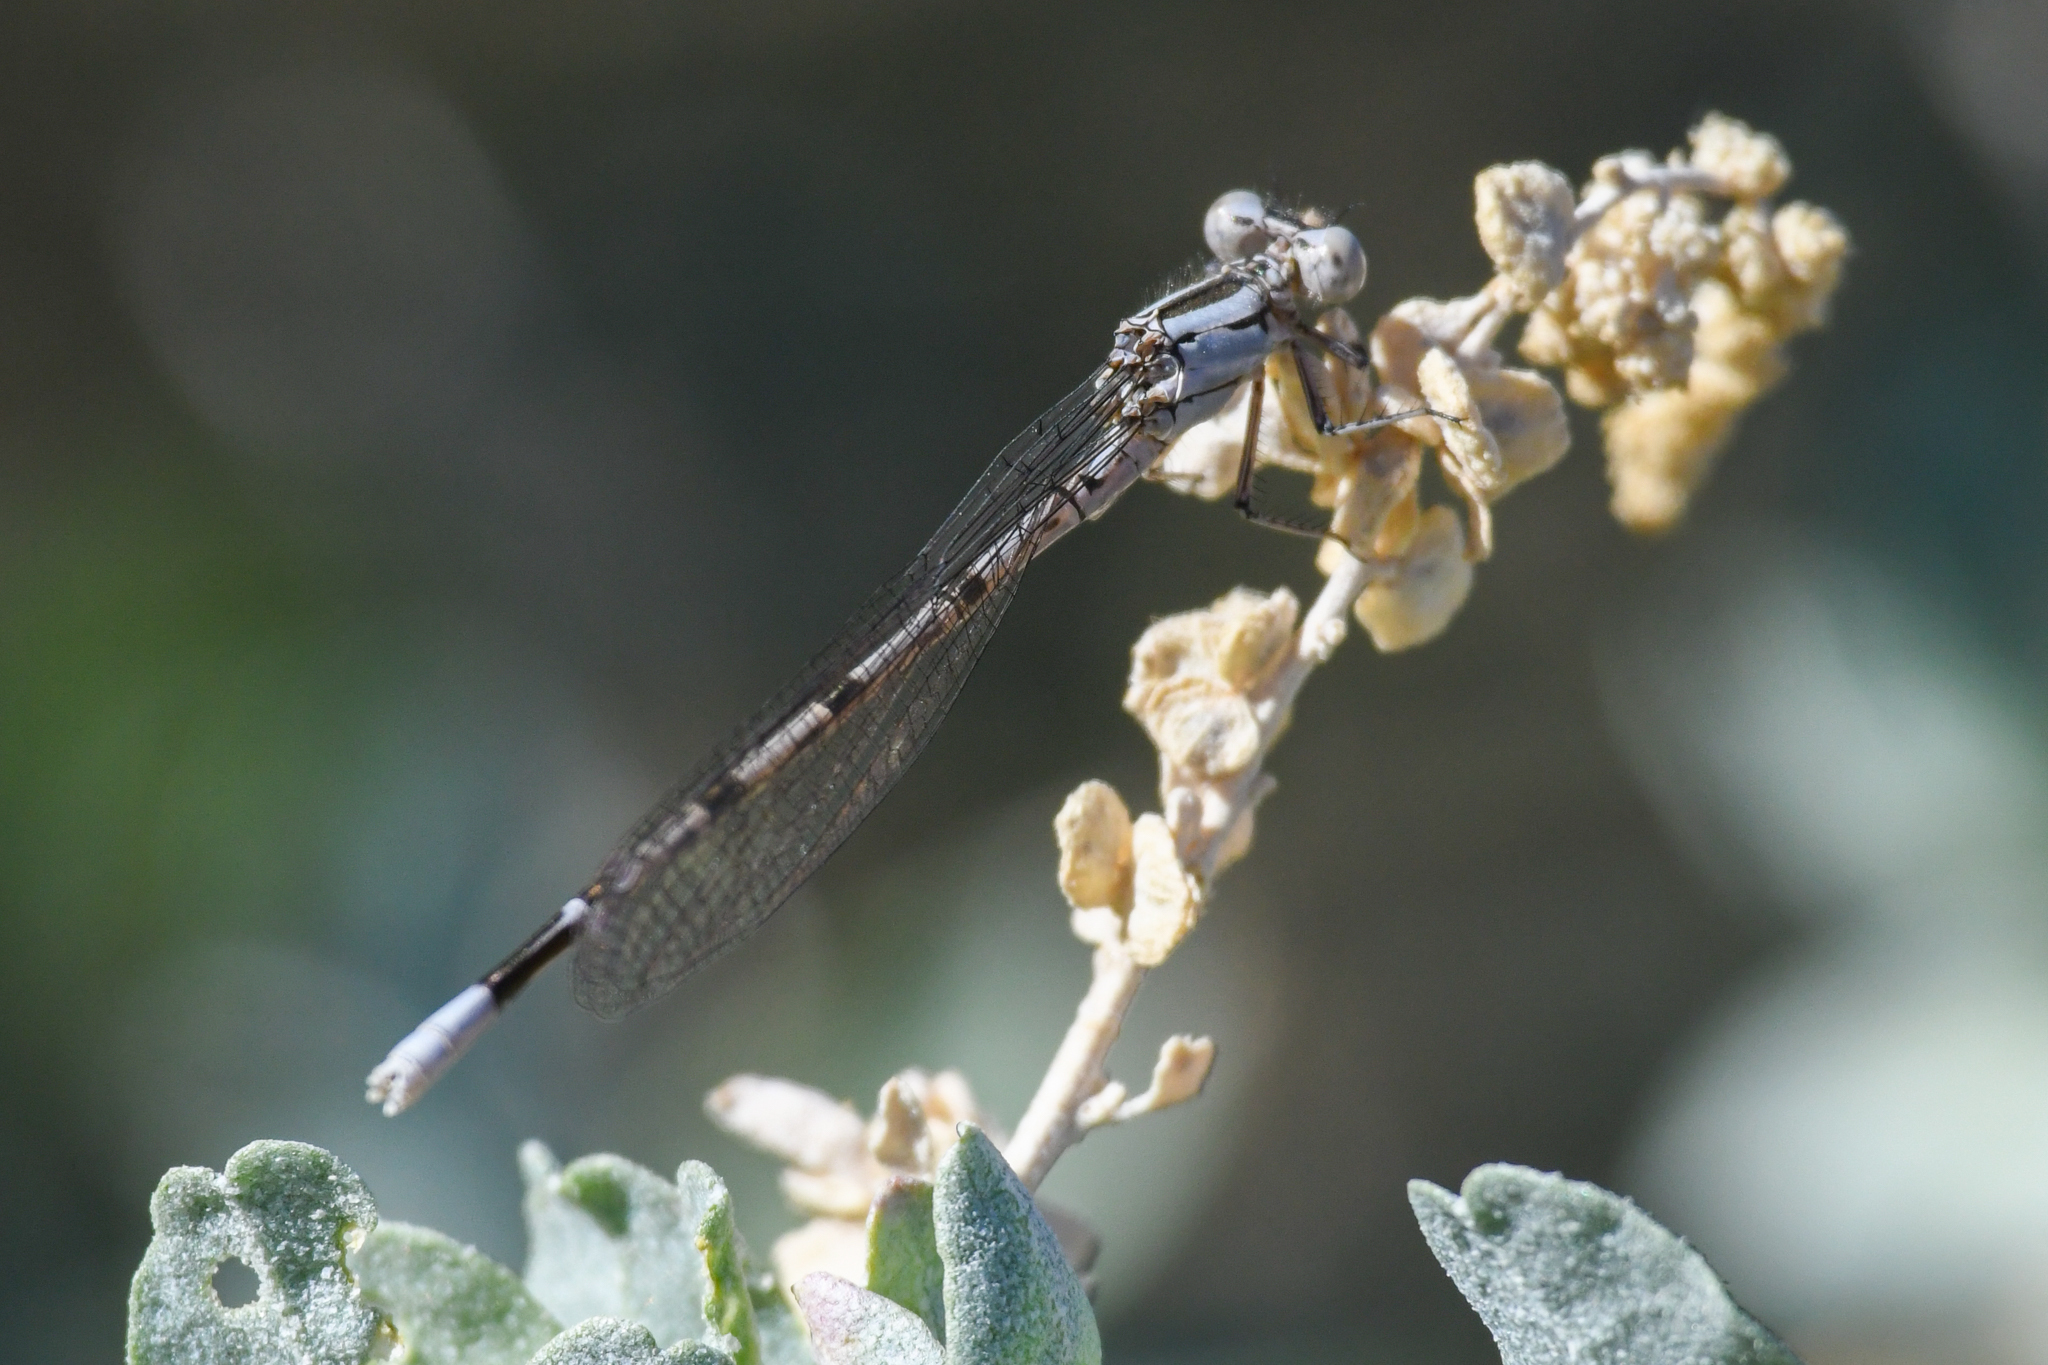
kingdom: Animalia
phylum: Arthropoda
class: Insecta
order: Odonata
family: Coenagrionidae
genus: Argia
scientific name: Argia vivida
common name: Vivid dancer
